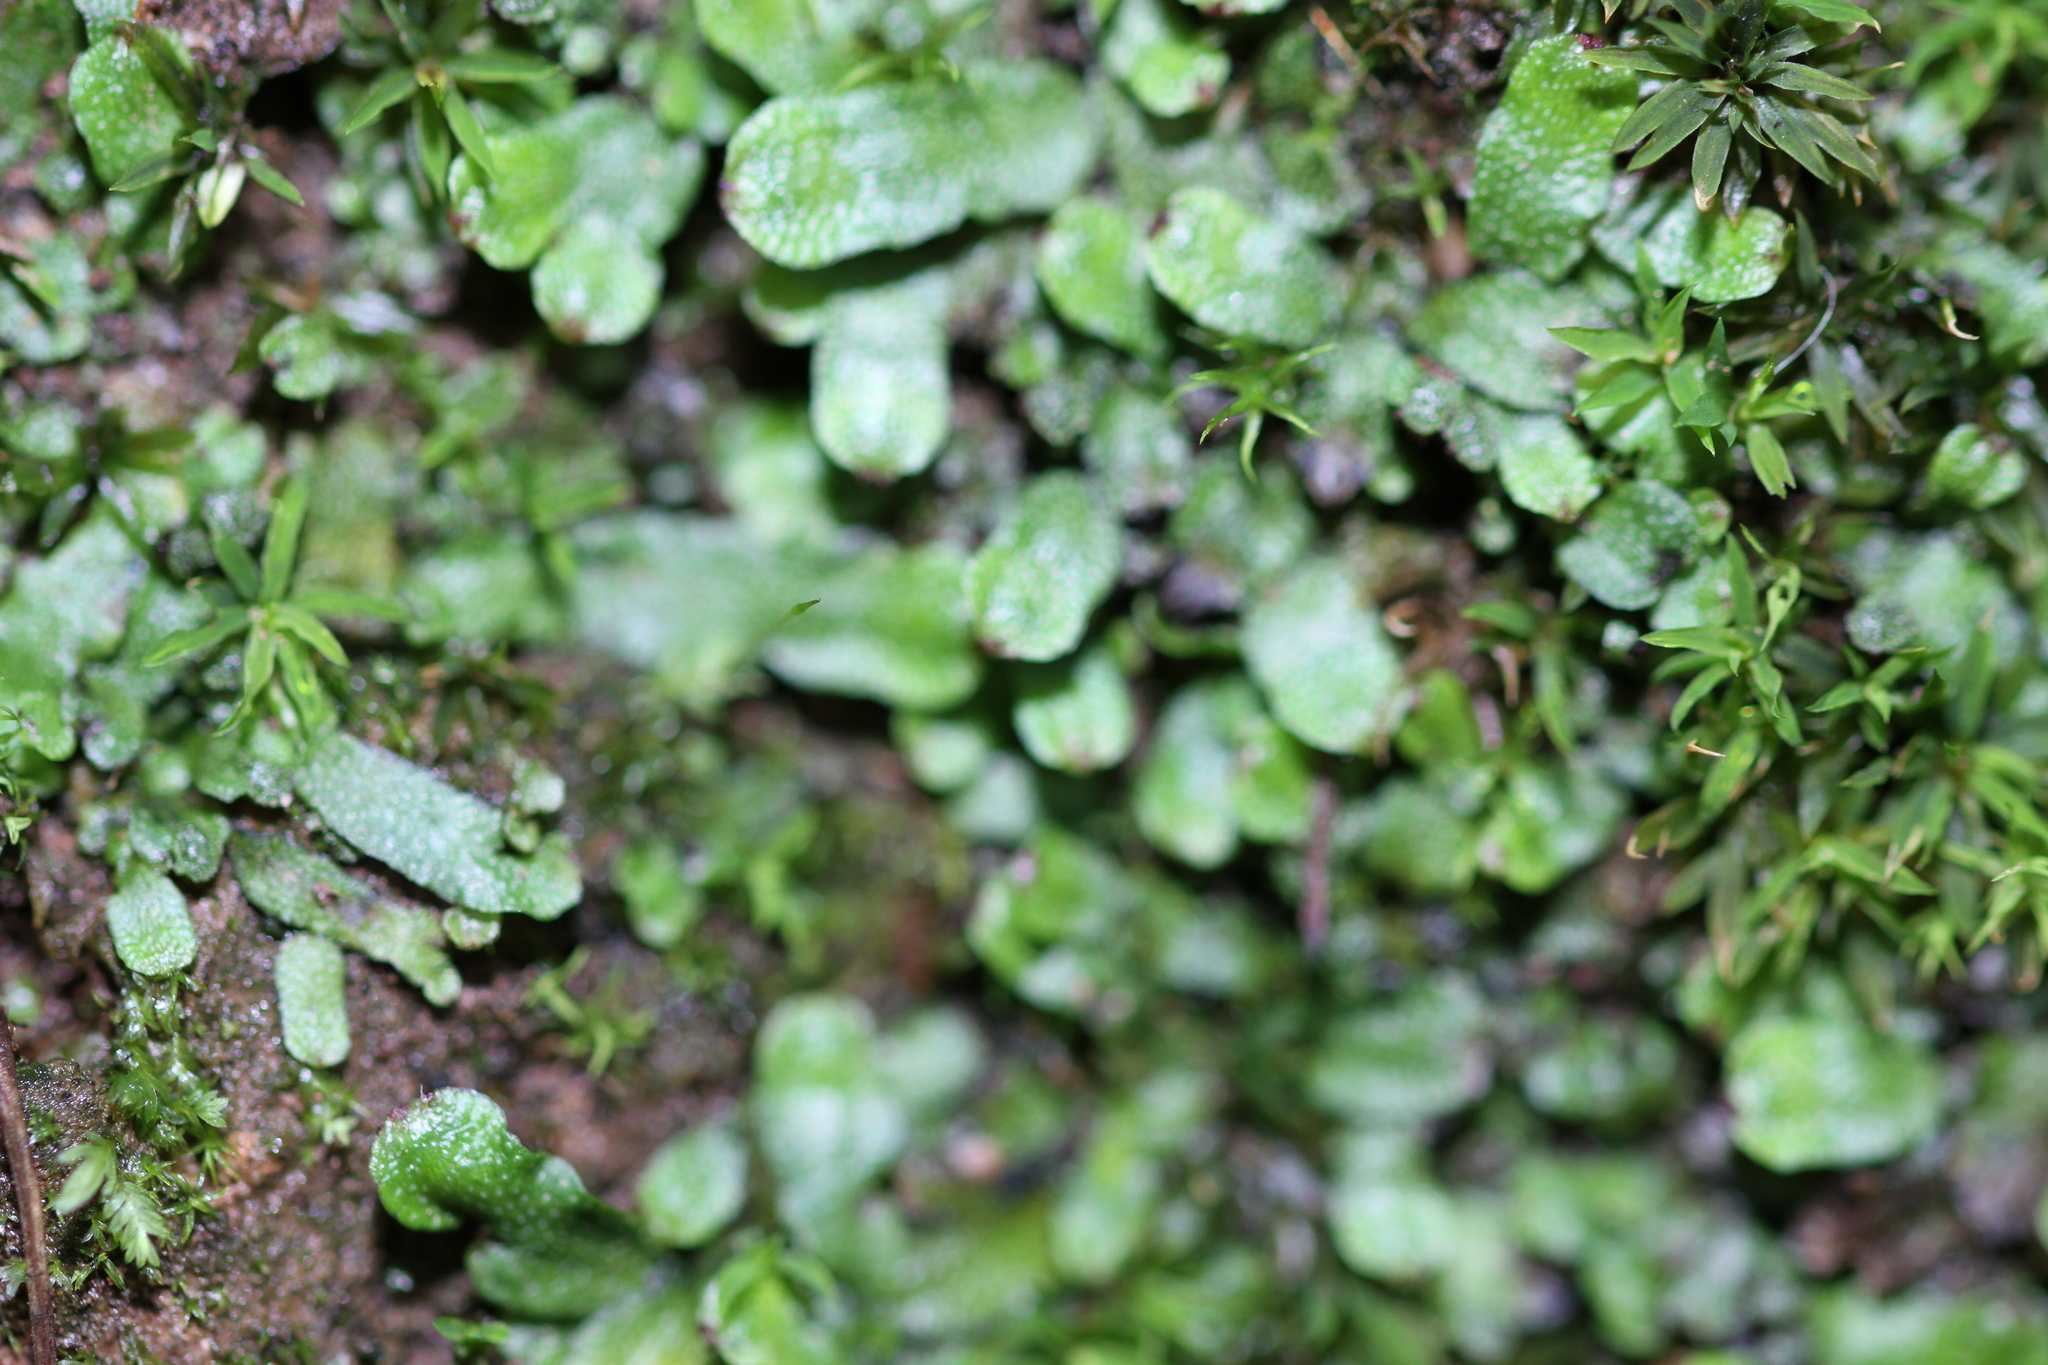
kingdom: Plantae
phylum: Marchantiophyta
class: Marchantiopsida
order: Marchantiales
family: Targioniaceae
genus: Targionia
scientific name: Targionia hypophylla
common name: Orobus-seed liverwort
